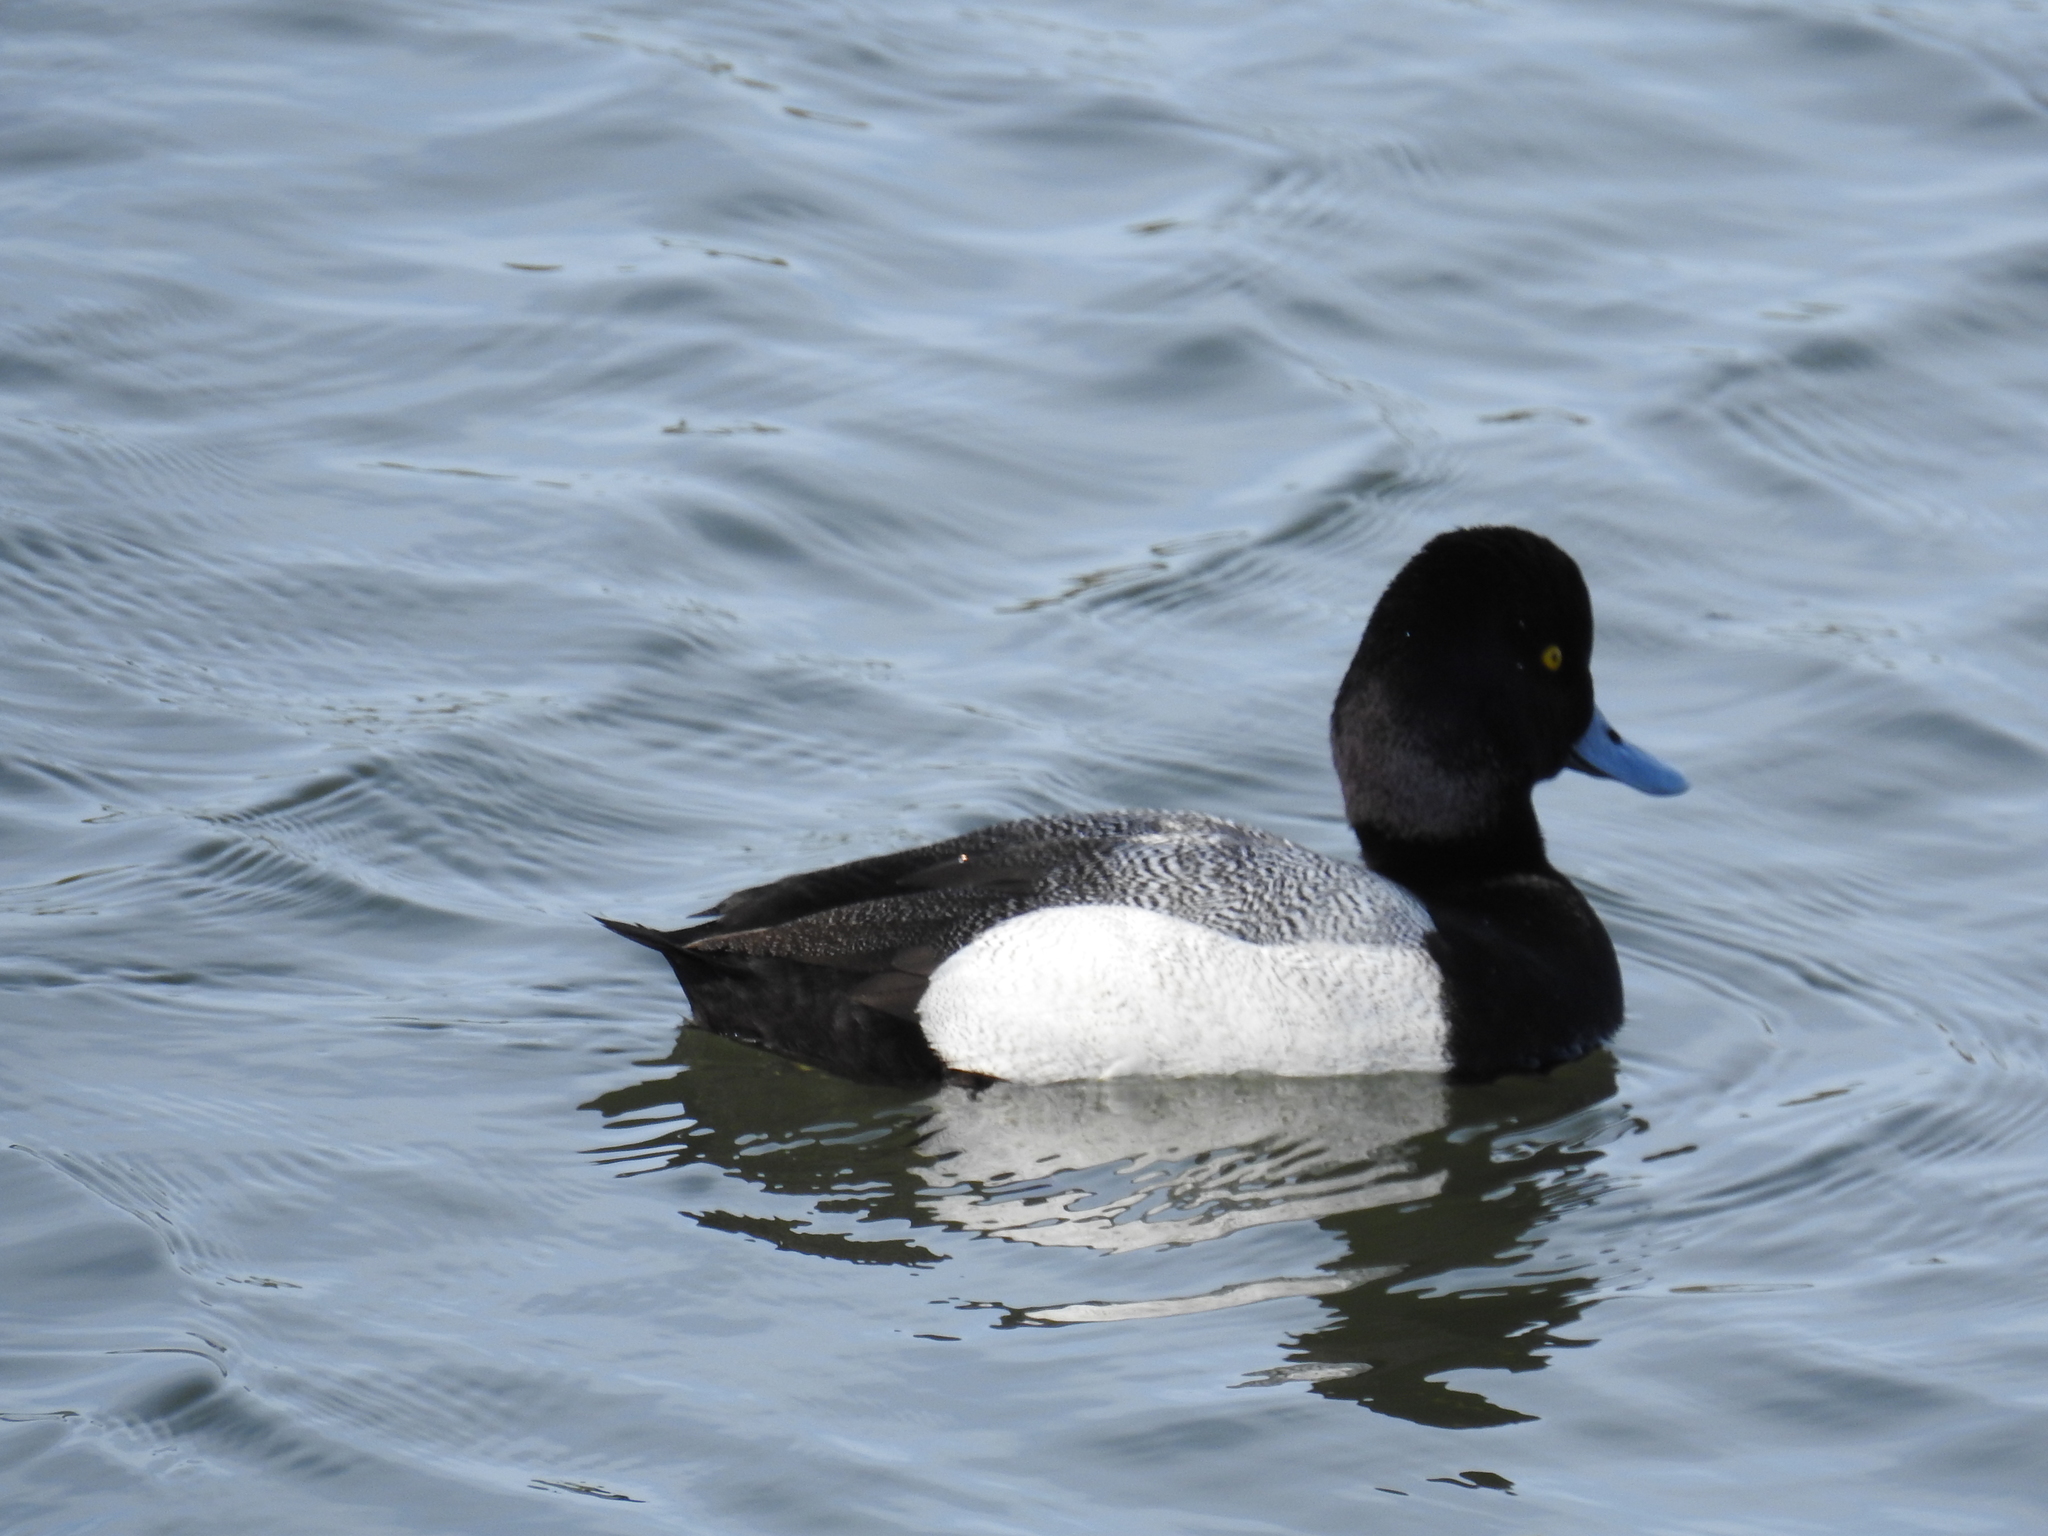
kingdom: Animalia
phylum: Chordata
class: Aves
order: Anseriformes
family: Anatidae
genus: Aythya
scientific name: Aythya affinis
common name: Lesser scaup
